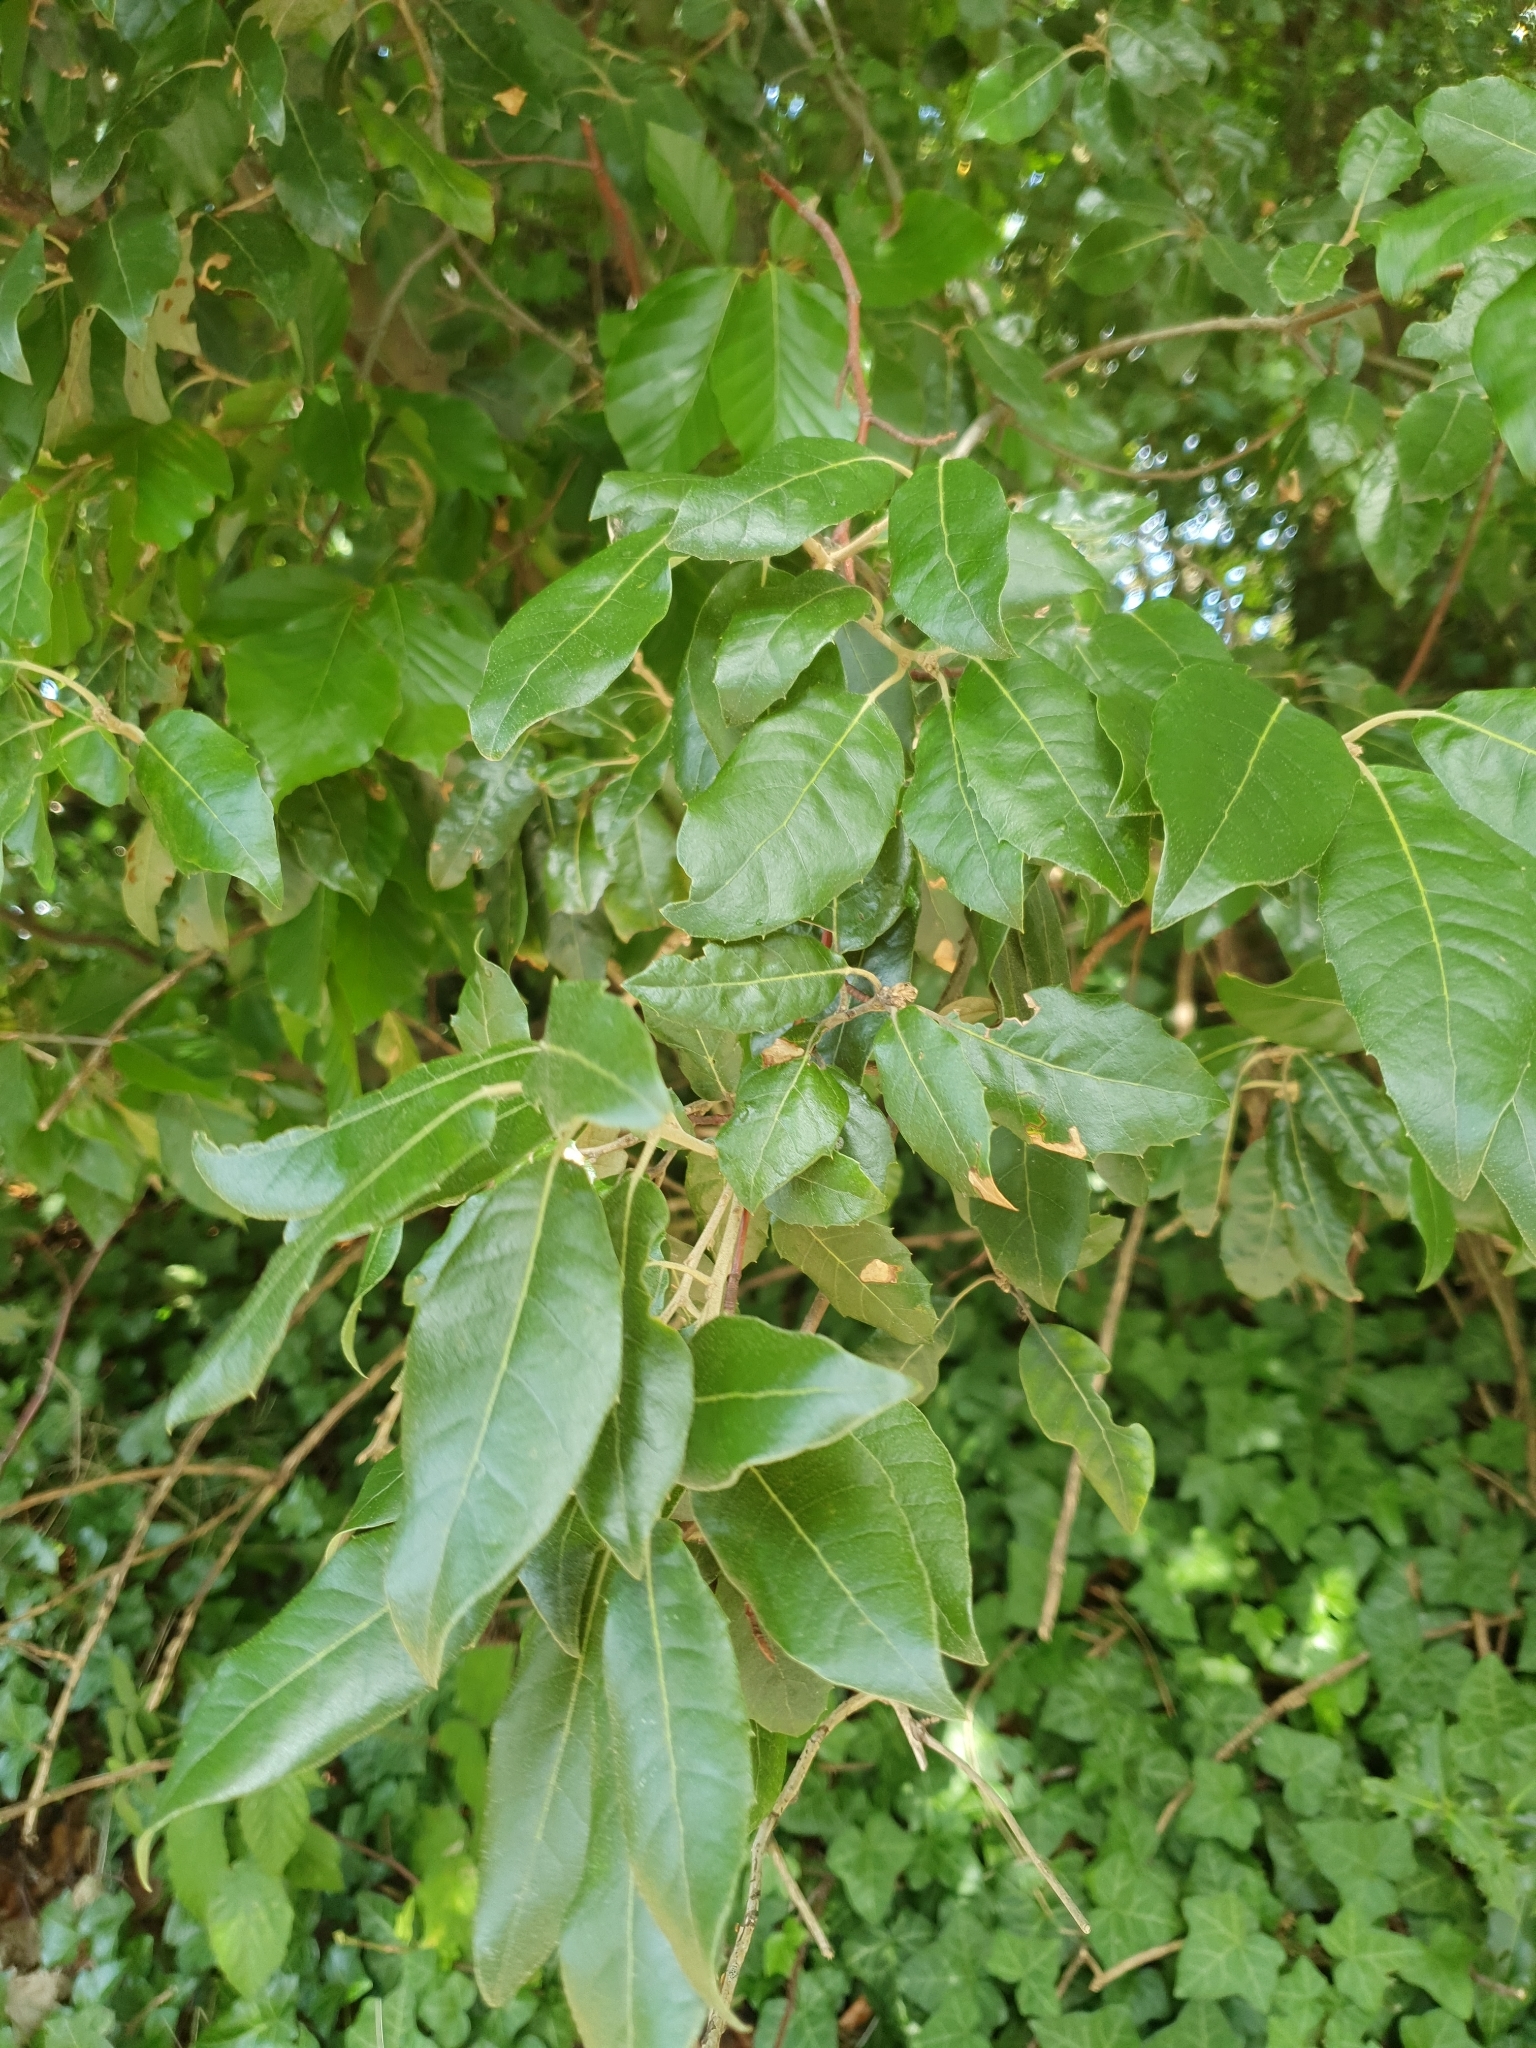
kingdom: Plantae
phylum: Tracheophyta
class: Magnoliopsida
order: Fagales
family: Fagaceae
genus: Quercus
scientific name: Quercus ilex
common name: Evergreen oak
